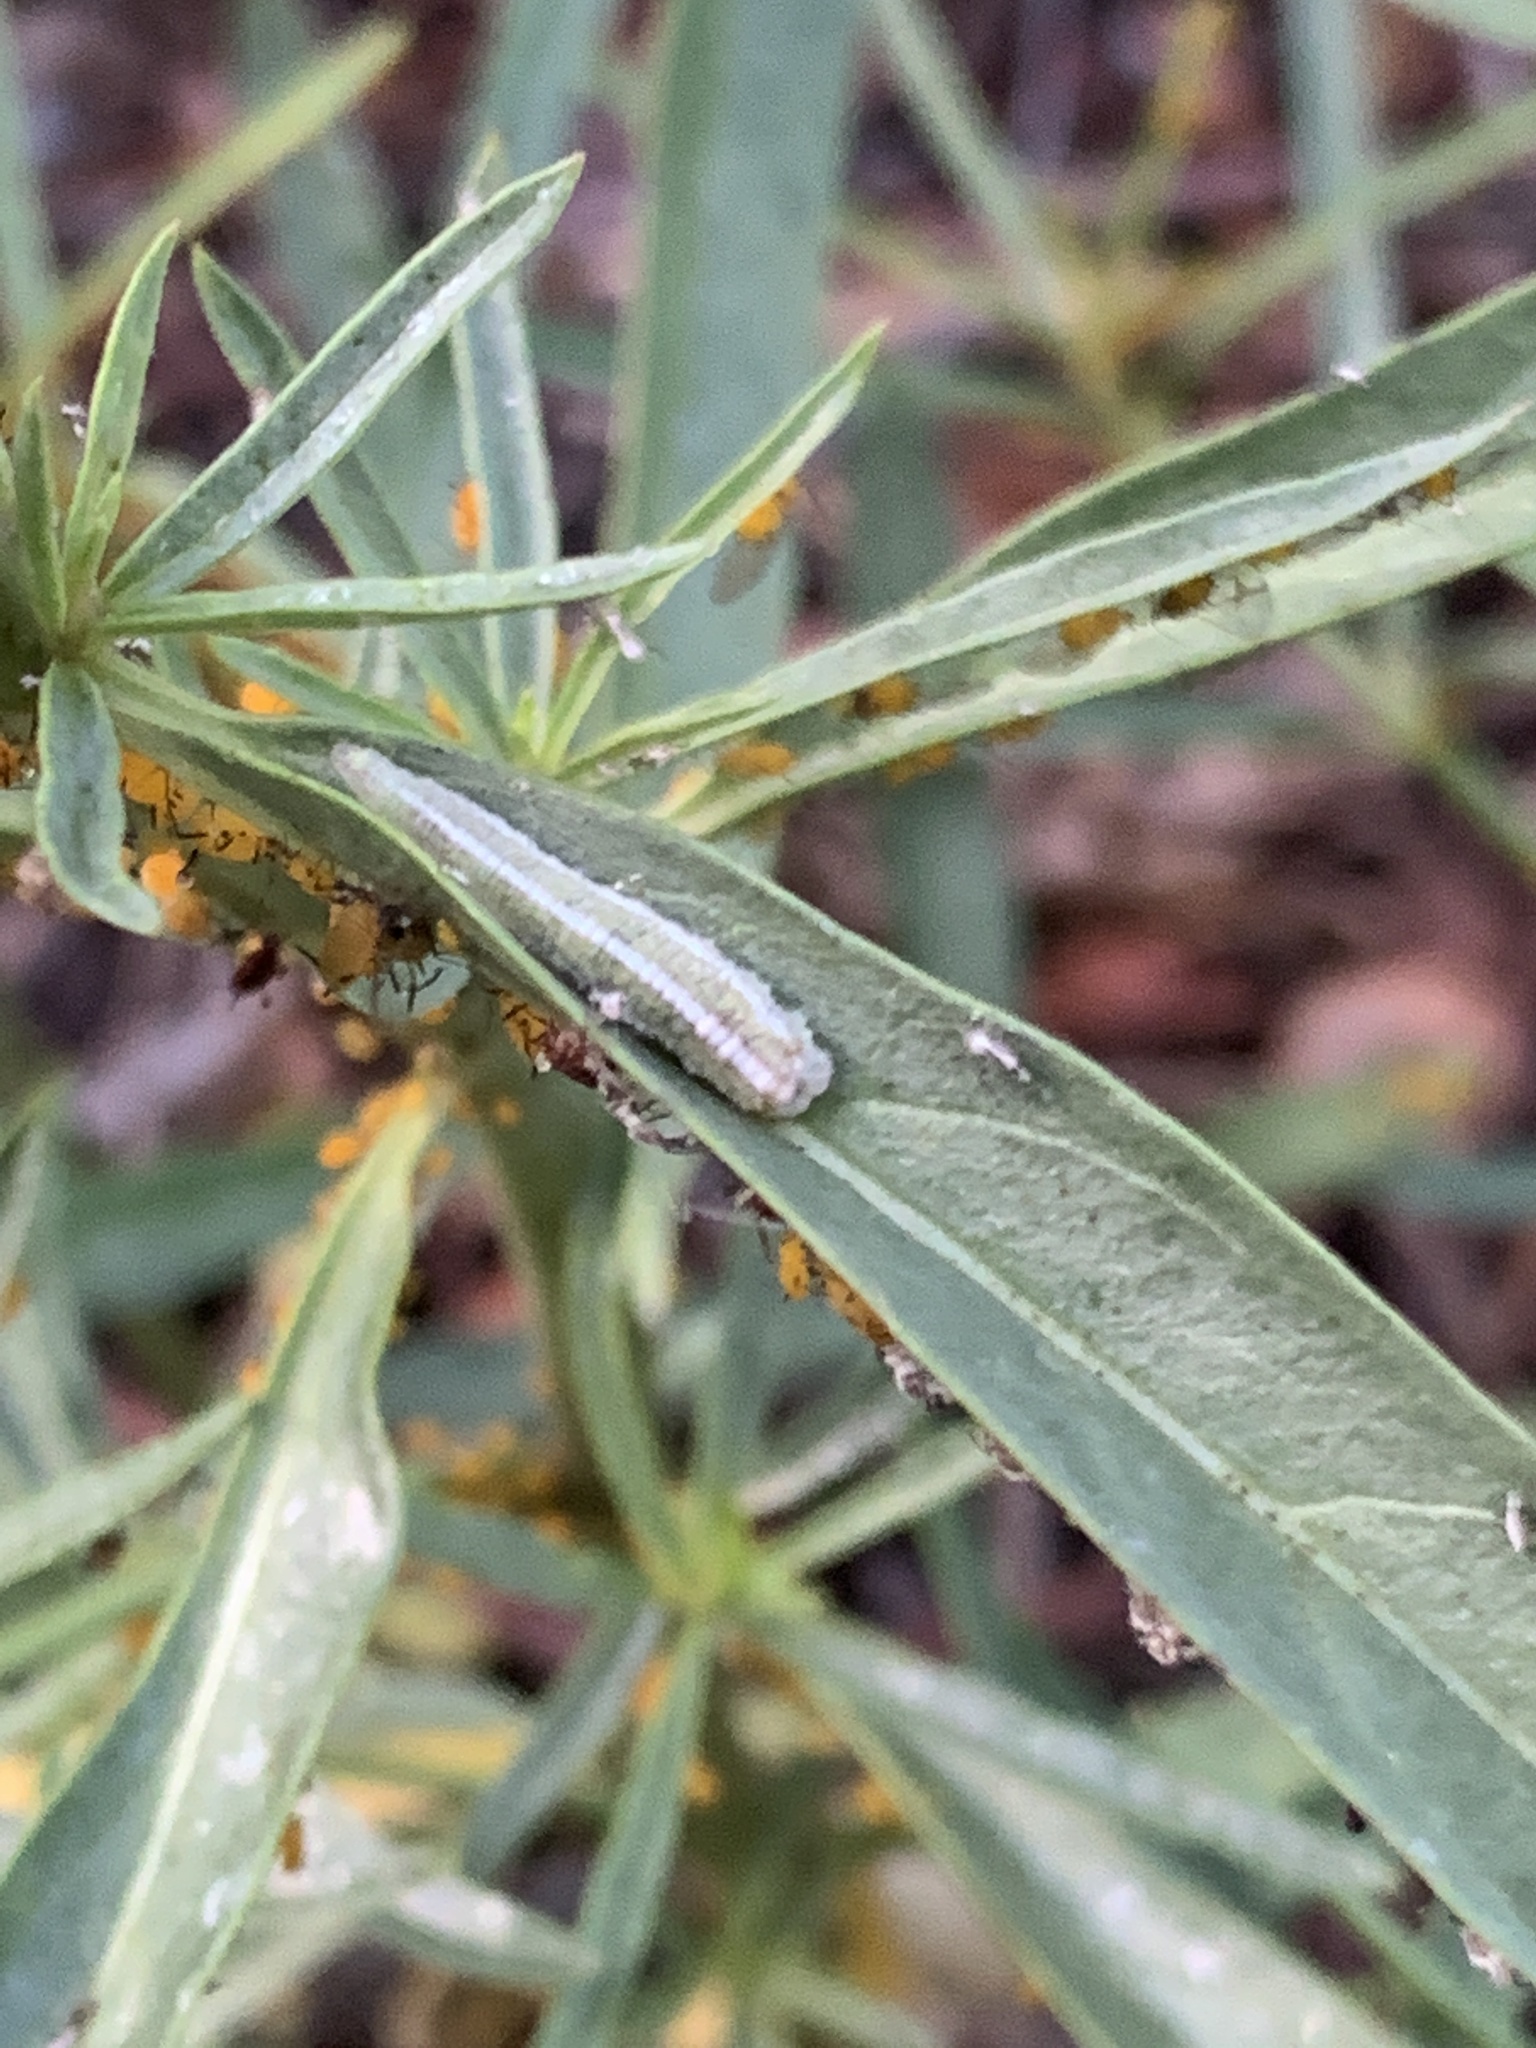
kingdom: Animalia
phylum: Arthropoda
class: Insecta
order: Diptera
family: Syrphidae
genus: Scaeva
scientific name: Scaeva affinis
